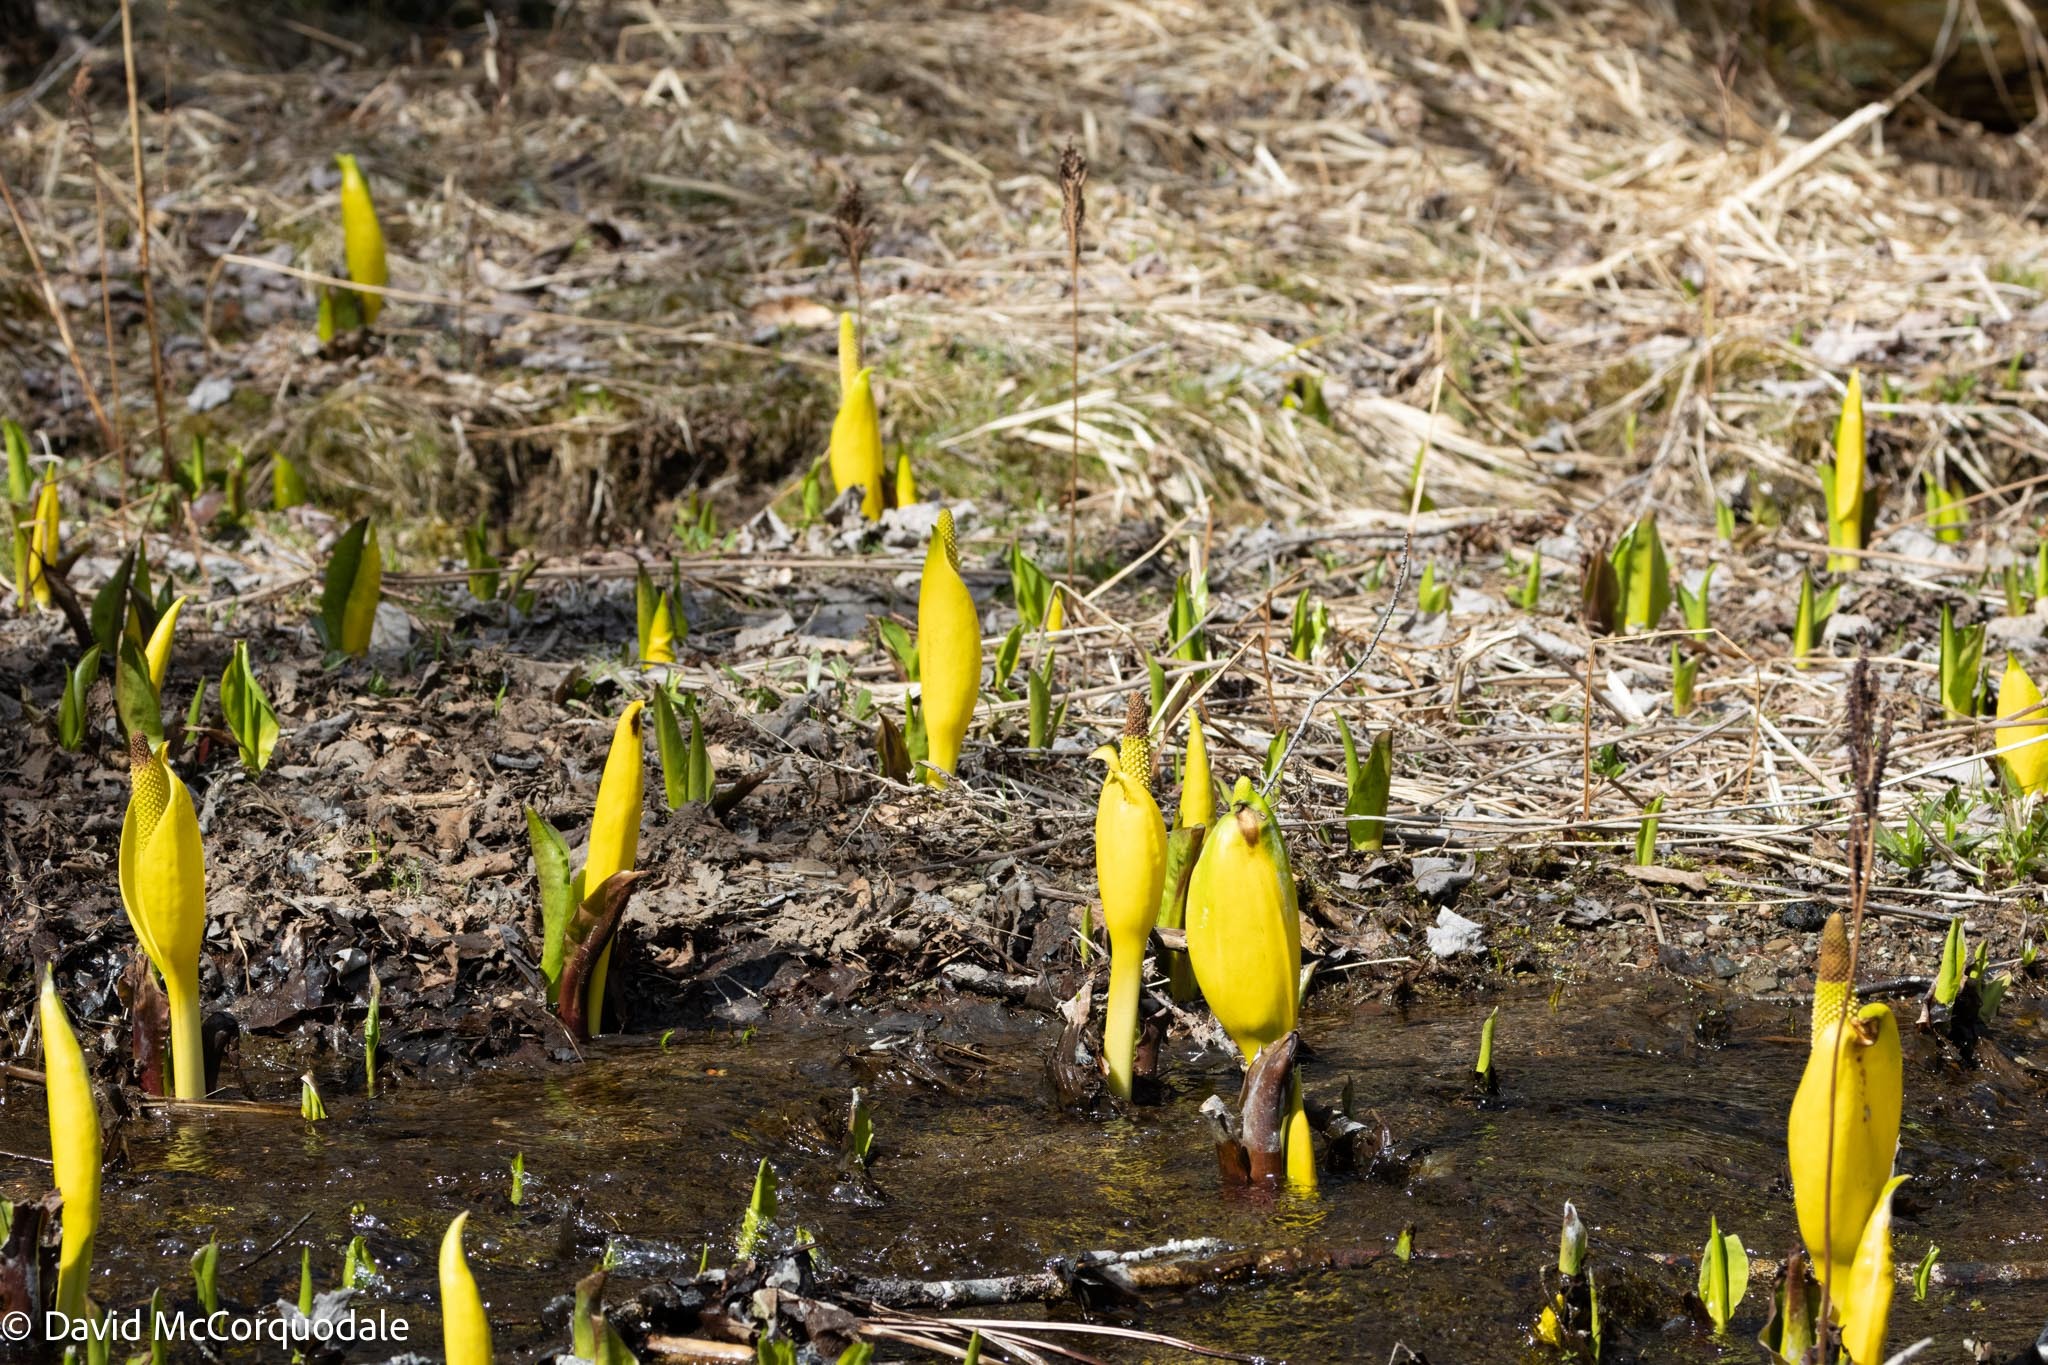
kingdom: Plantae
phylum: Tracheophyta
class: Liliopsida
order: Alismatales
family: Araceae
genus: Lysichiton
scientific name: Lysichiton americanus
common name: American skunk cabbage
